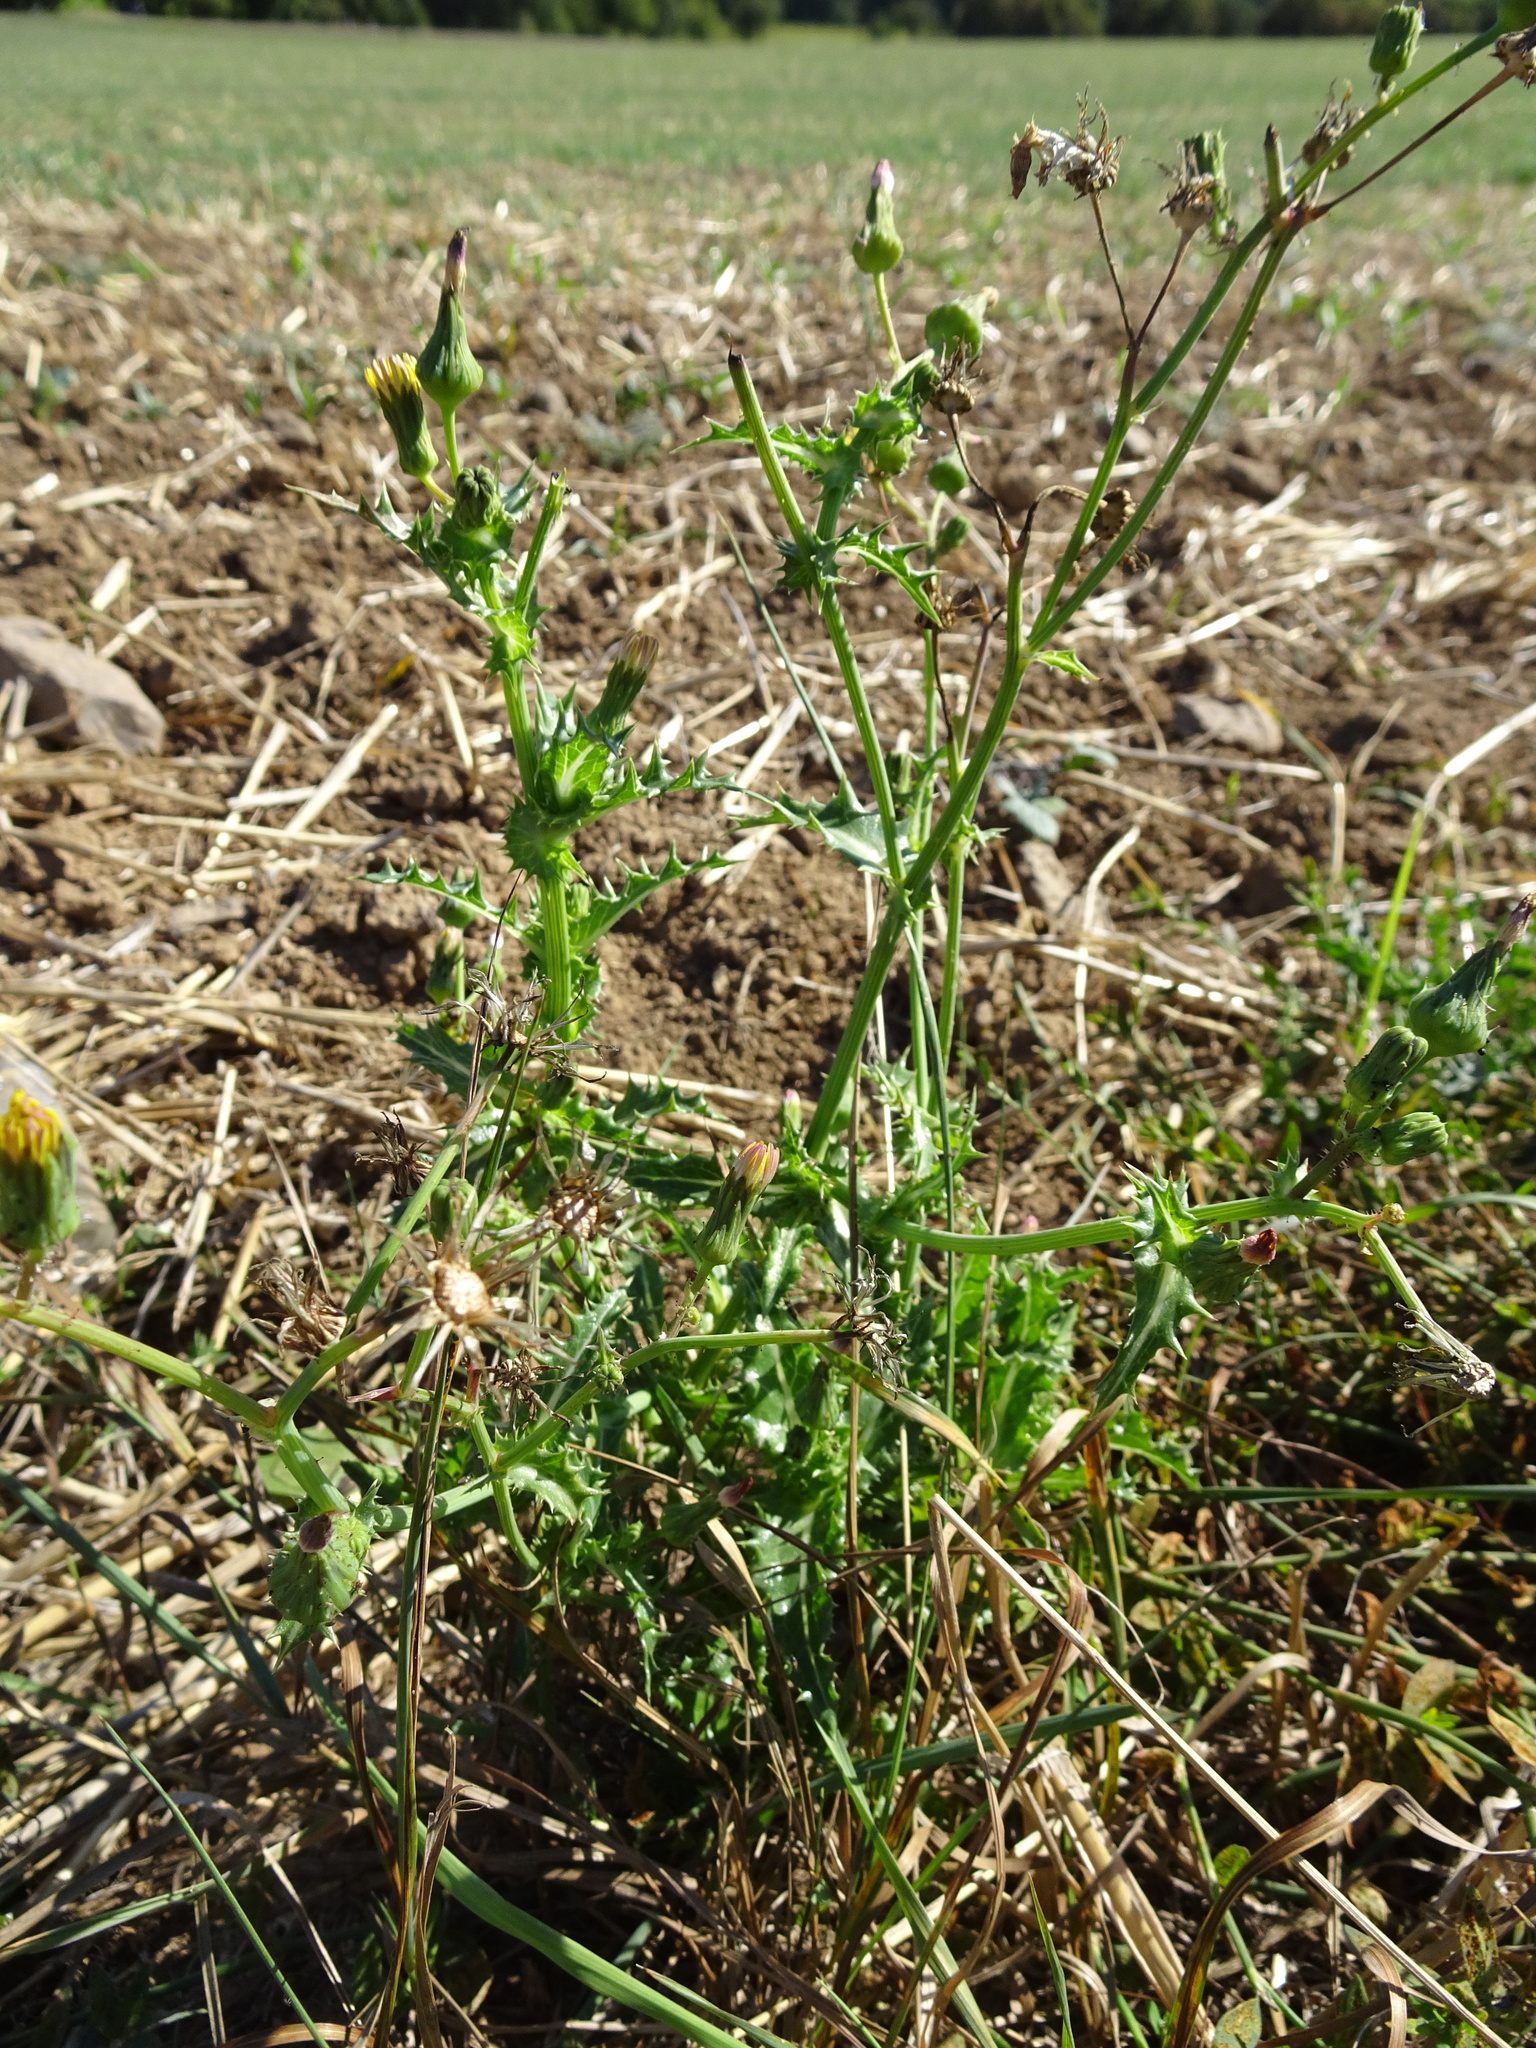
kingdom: Plantae
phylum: Tracheophyta
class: Magnoliopsida
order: Asterales
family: Asteraceae
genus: Sonchus
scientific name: Sonchus asper
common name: Prickly sow-thistle
